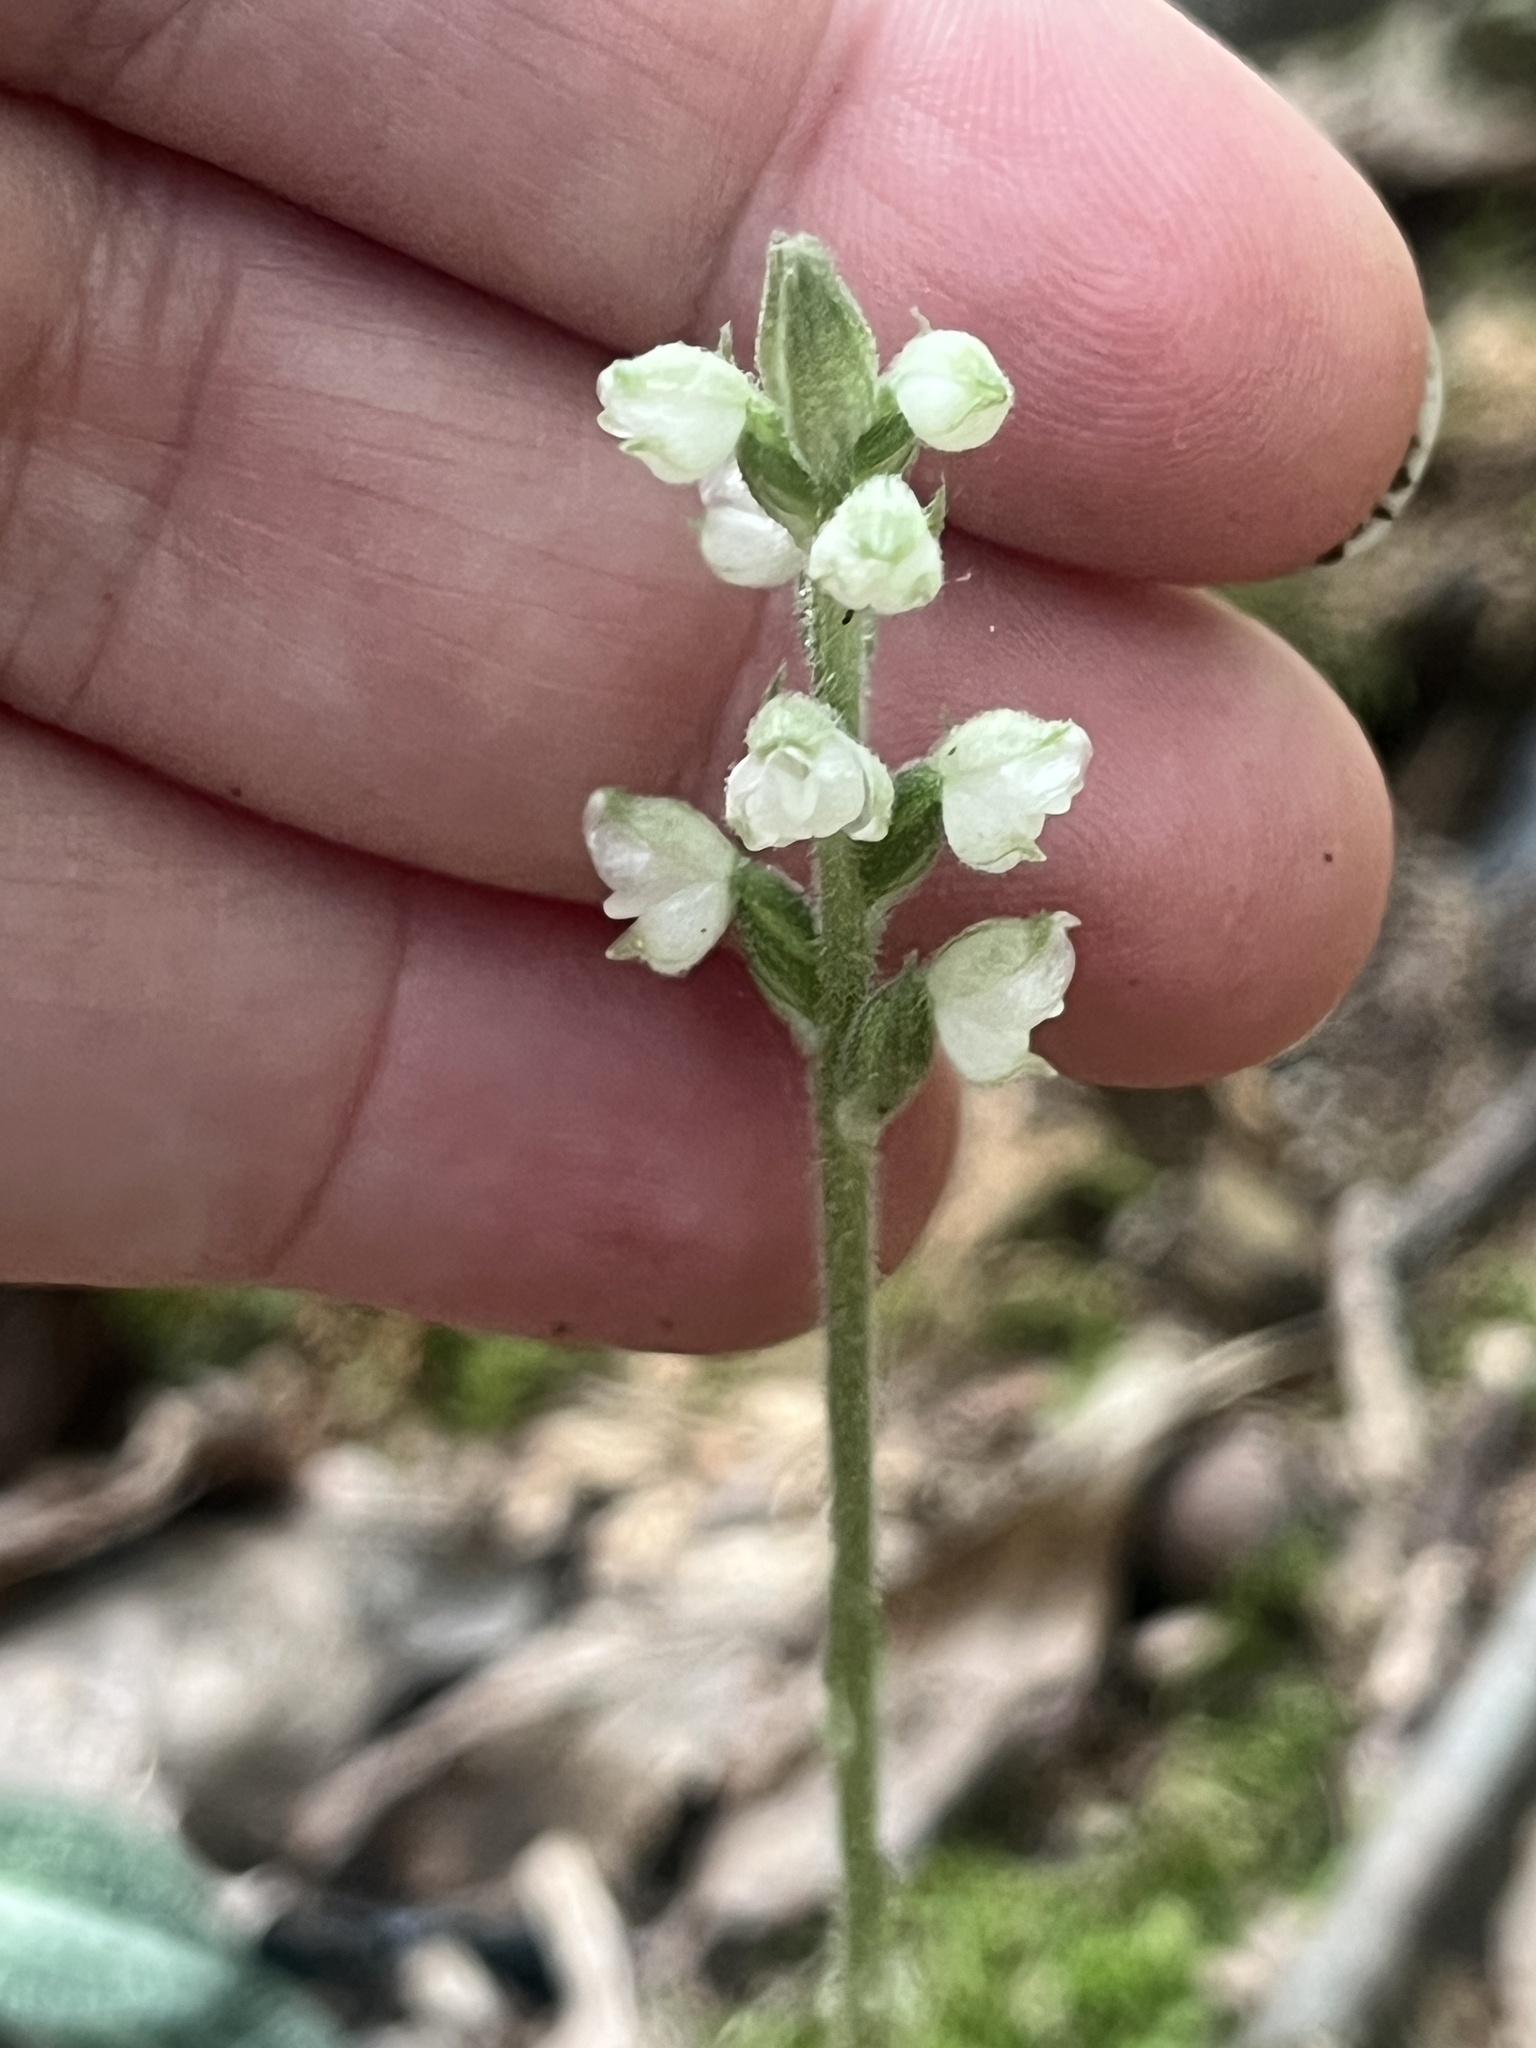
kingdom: Plantae
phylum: Tracheophyta
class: Liliopsida
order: Asparagales
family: Orchidaceae
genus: Goodyera
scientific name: Goodyera pubescens
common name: Downy rattlesnake-plantain
